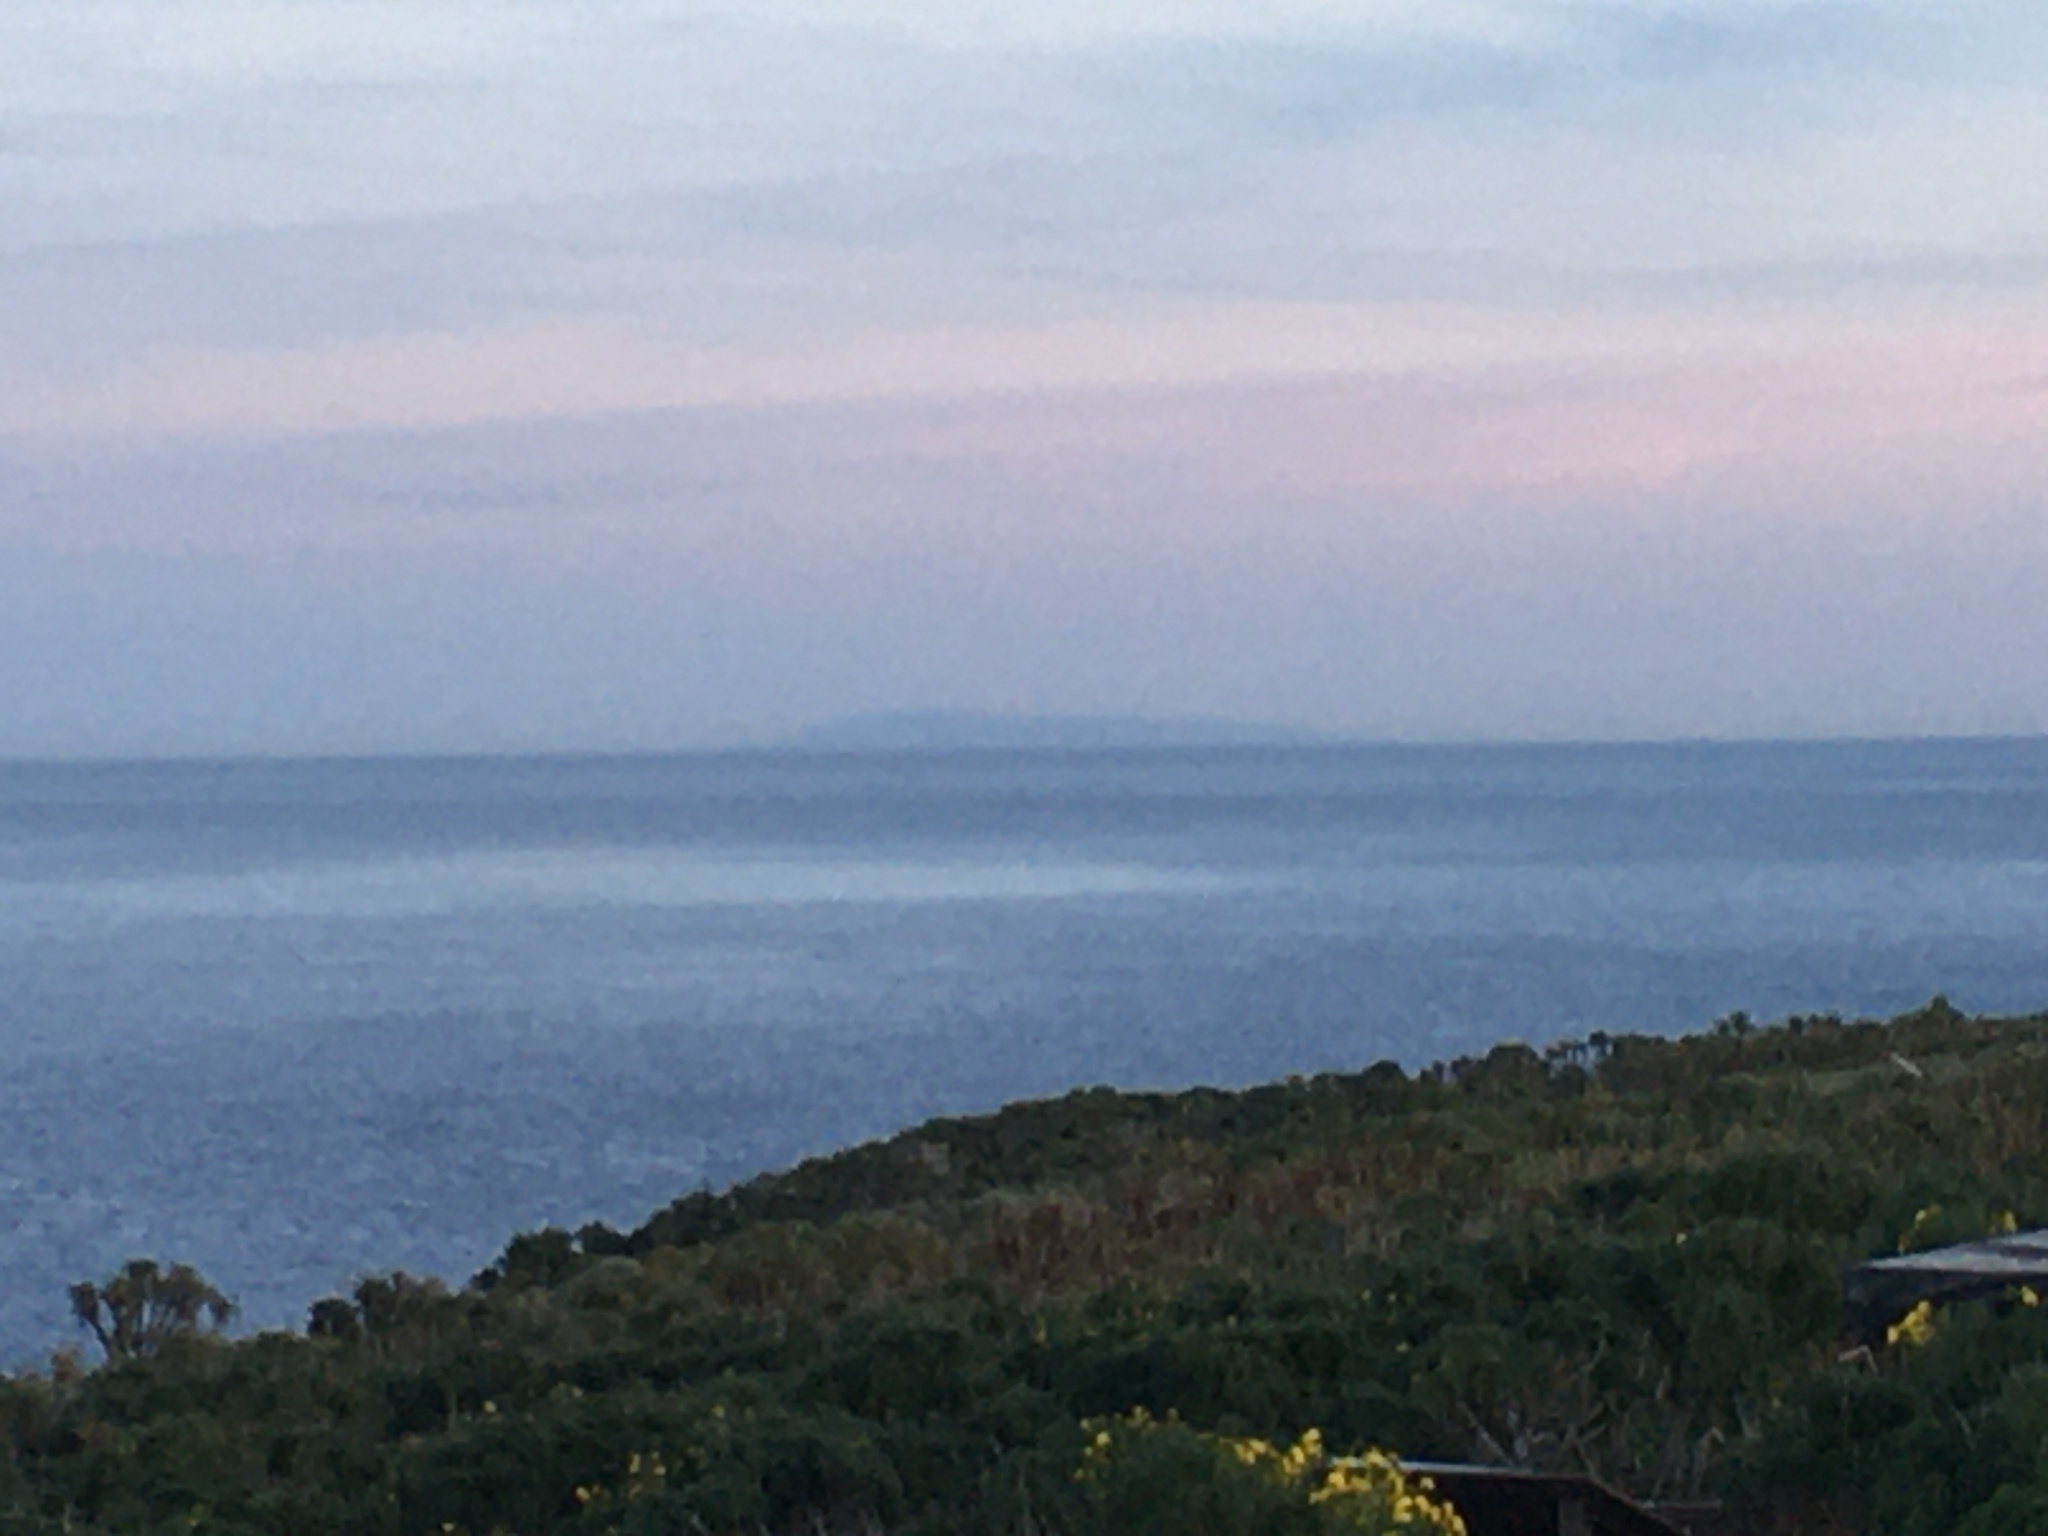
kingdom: Plantae
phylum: Tracheophyta
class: Magnoliopsida
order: Asterales
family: Asteraceae
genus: Coreopsis
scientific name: Coreopsis gigantea
